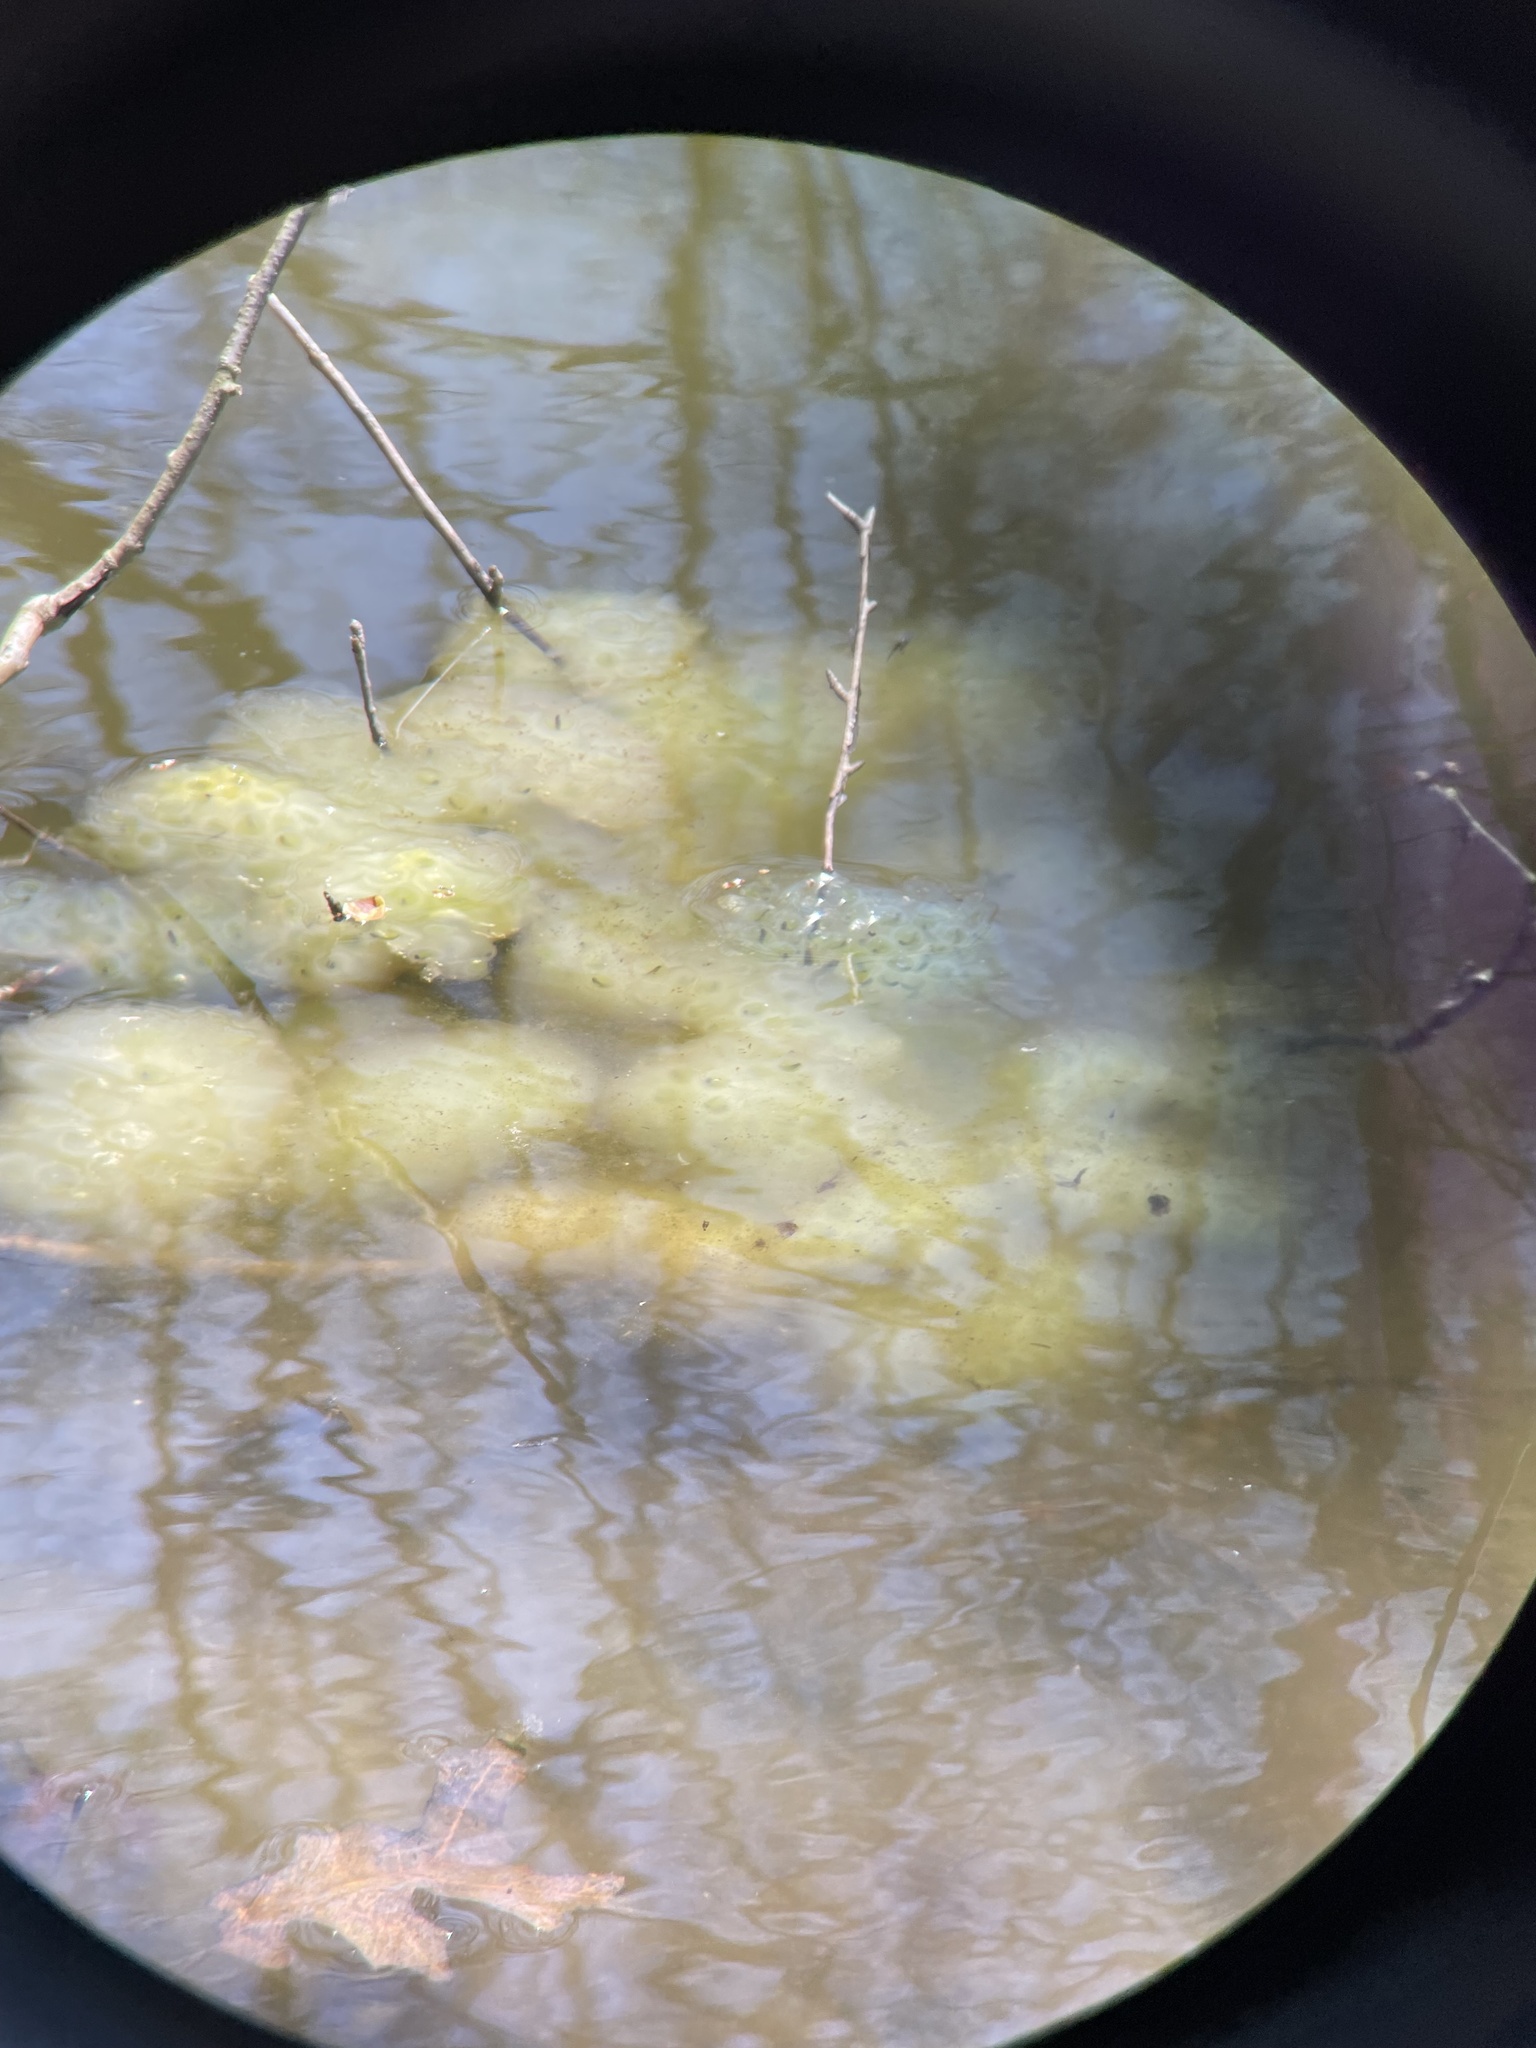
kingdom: Animalia
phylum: Chordata
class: Amphibia
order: Caudata
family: Ambystomatidae
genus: Ambystoma
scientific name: Ambystoma maculatum
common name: Spotted salamander
